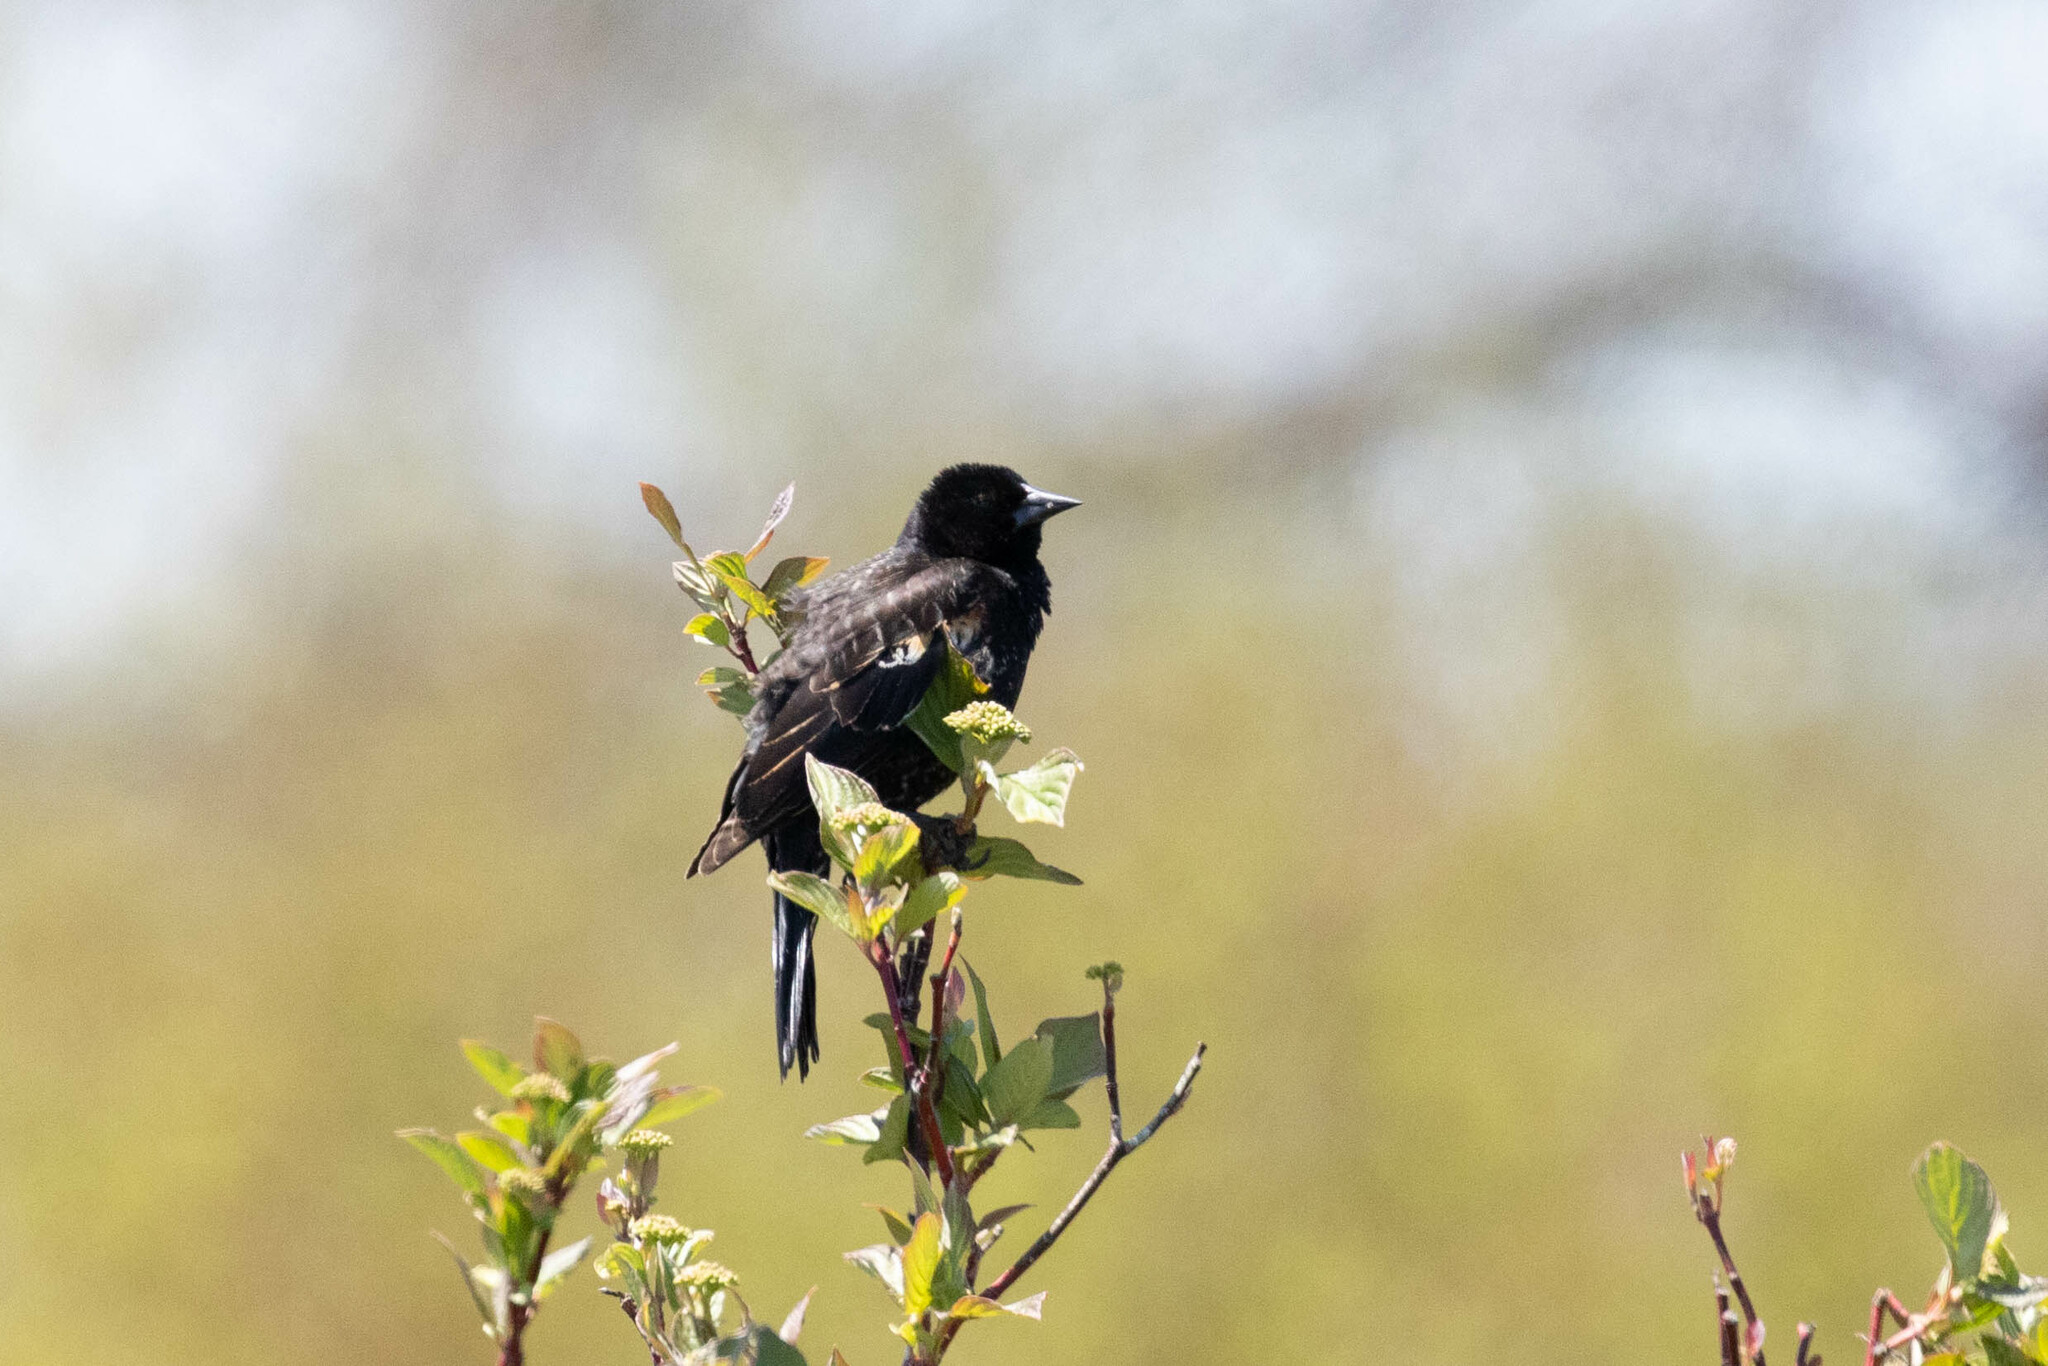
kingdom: Animalia
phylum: Chordata
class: Aves
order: Passeriformes
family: Icteridae
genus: Agelaius
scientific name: Agelaius phoeniceus
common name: Red-winged blackbird
